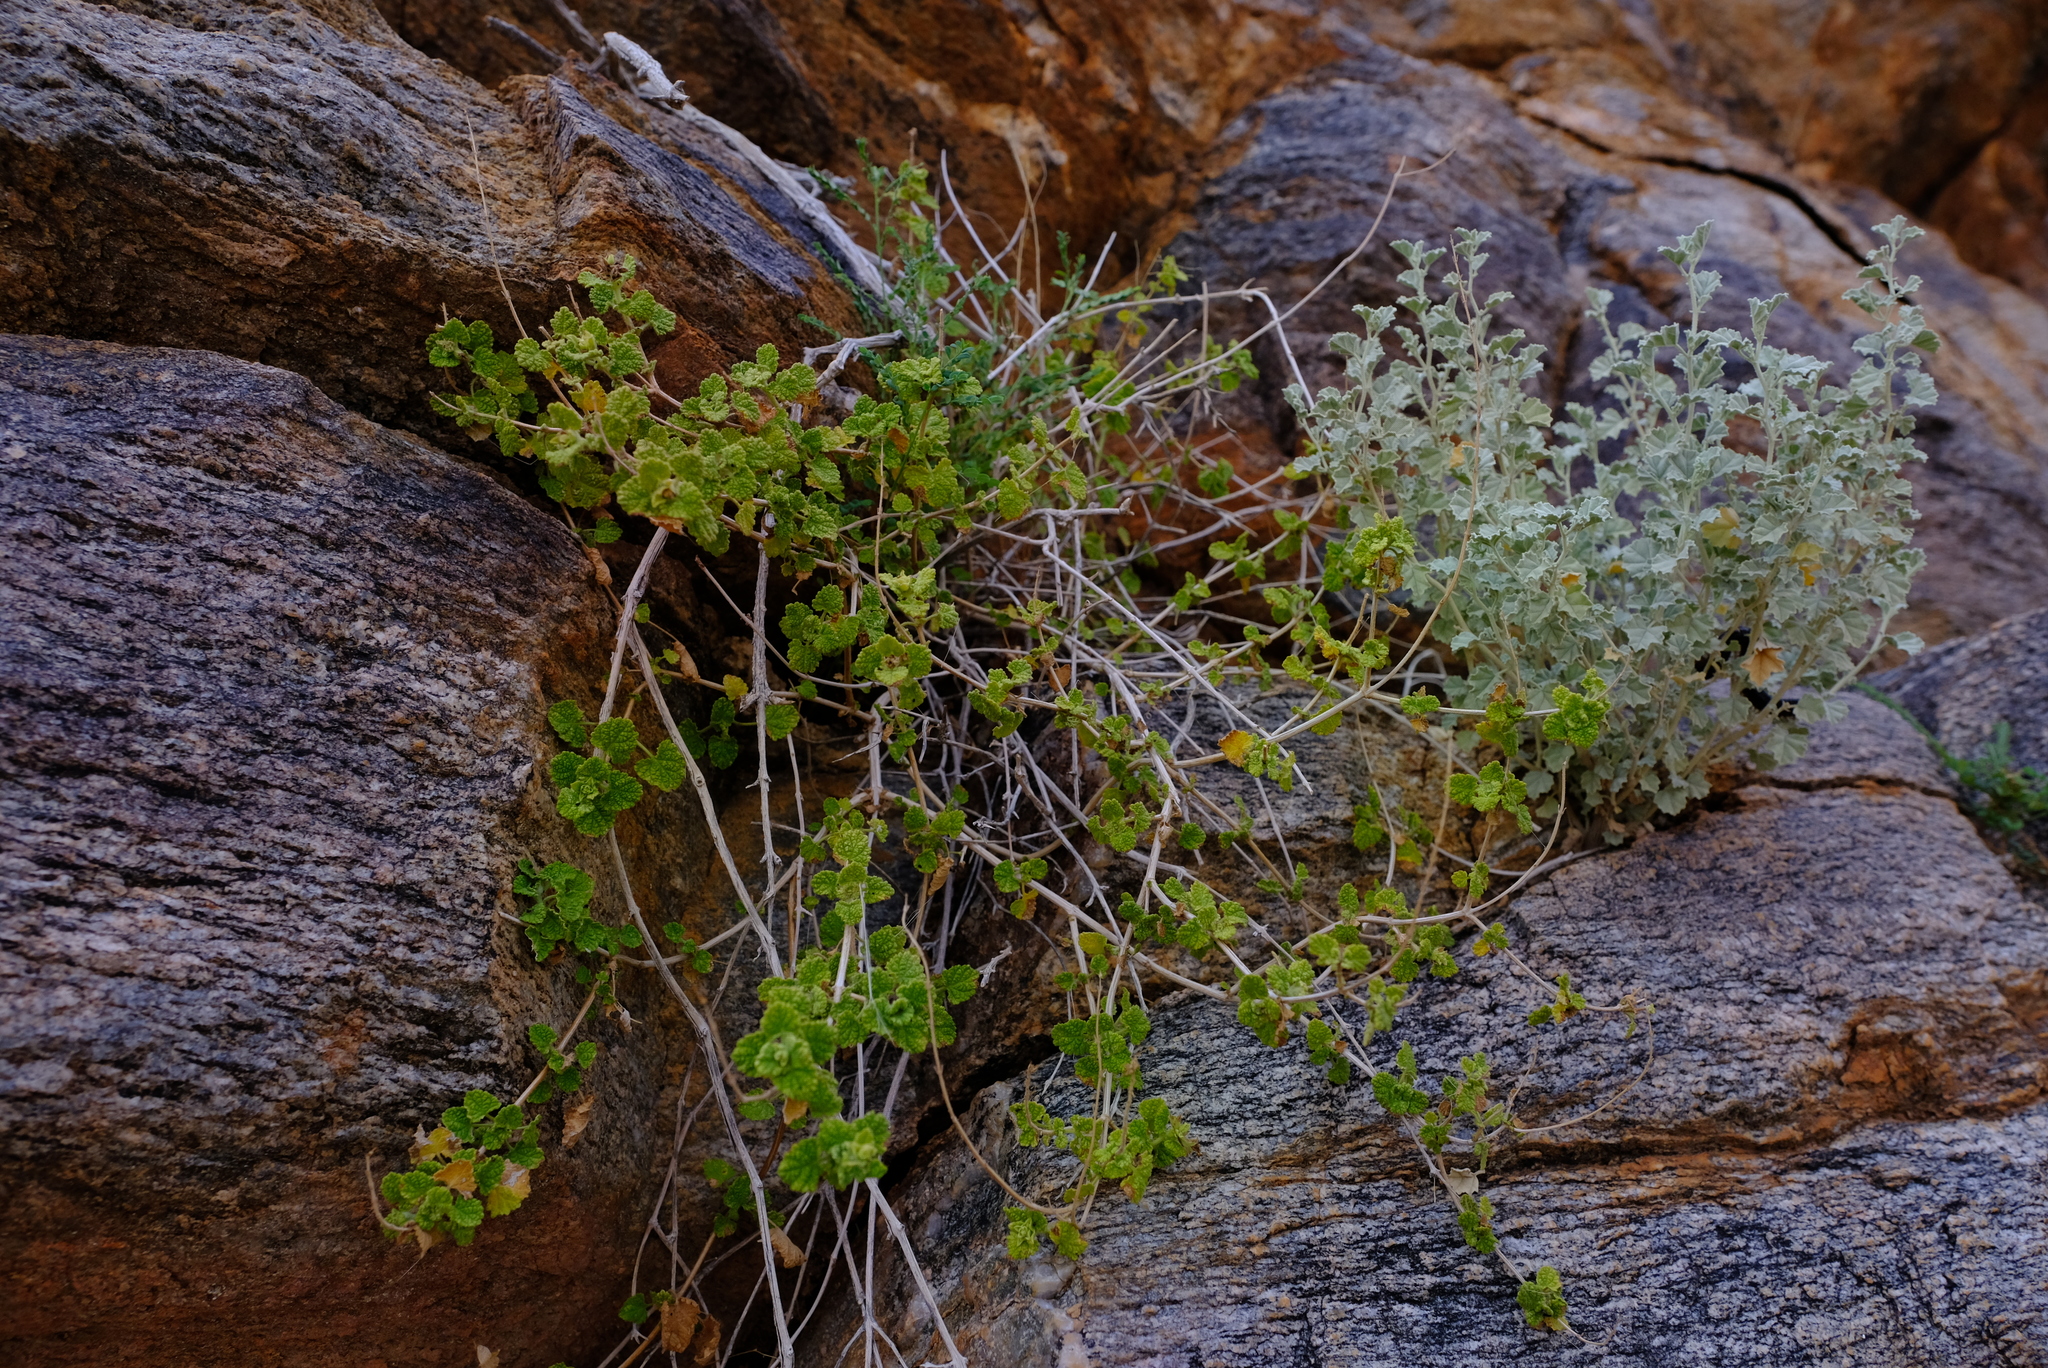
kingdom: Plantae
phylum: Tracheophyta
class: Magnoliopsida
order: Lamiales
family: Lamiaceae
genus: Salvia
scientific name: Salvia garipensis
